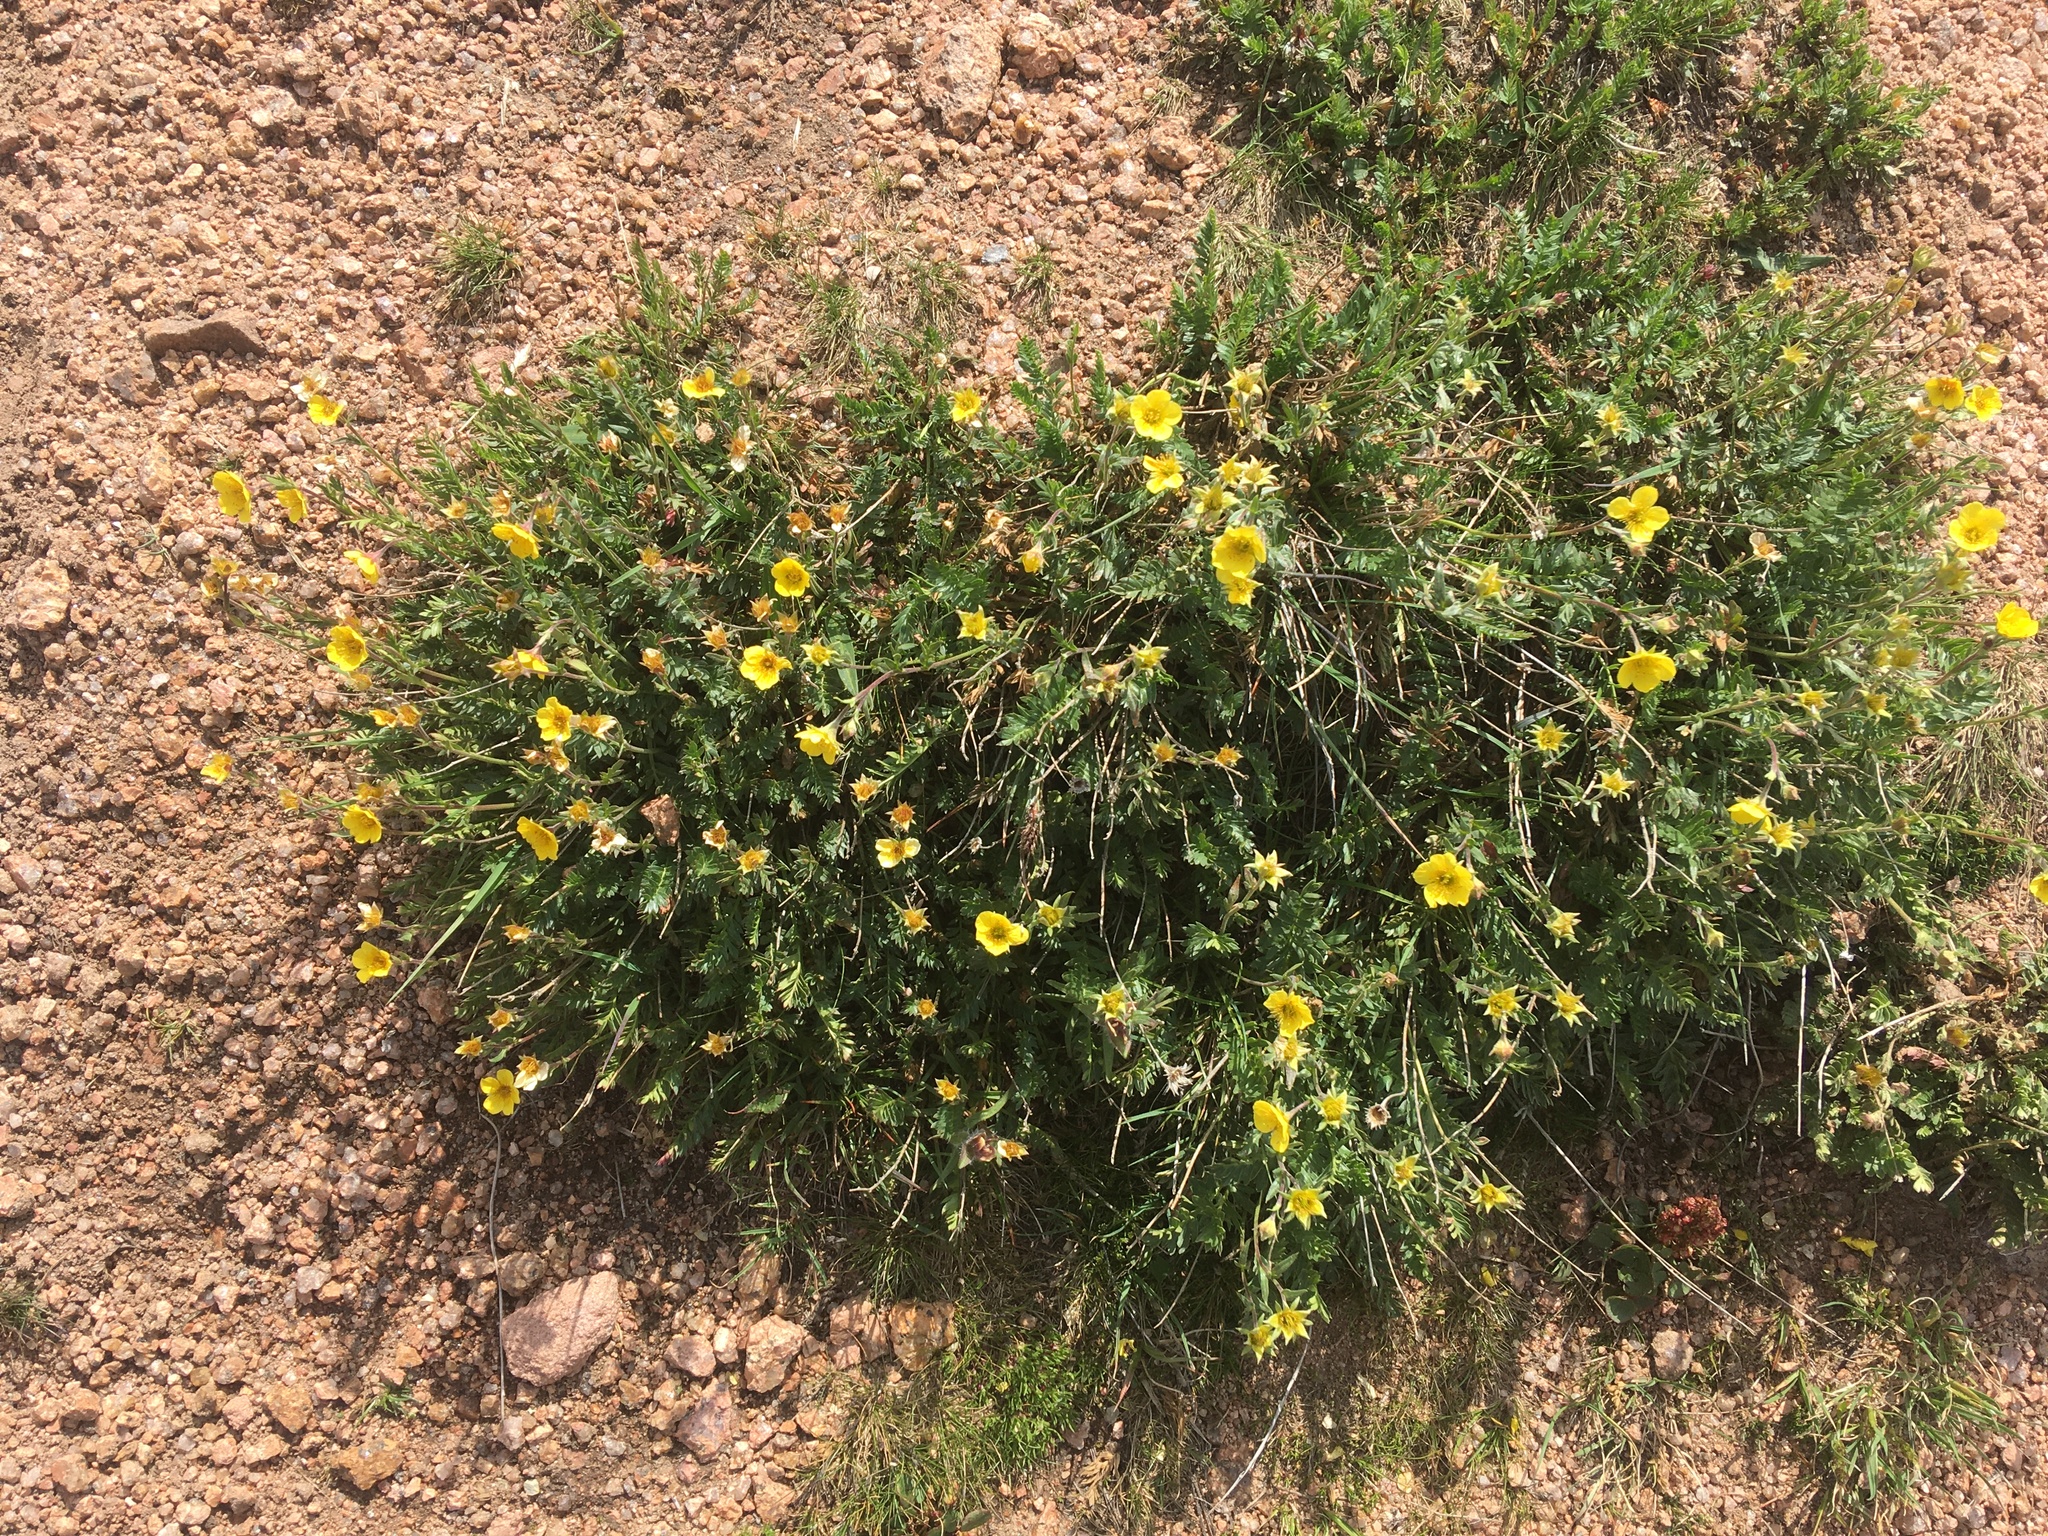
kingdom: Plantae
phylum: Tracheophyta
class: Magnoliopsida
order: Rosales
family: Rosaceae
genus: Geum
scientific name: Geum rossii
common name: Alpine avens
